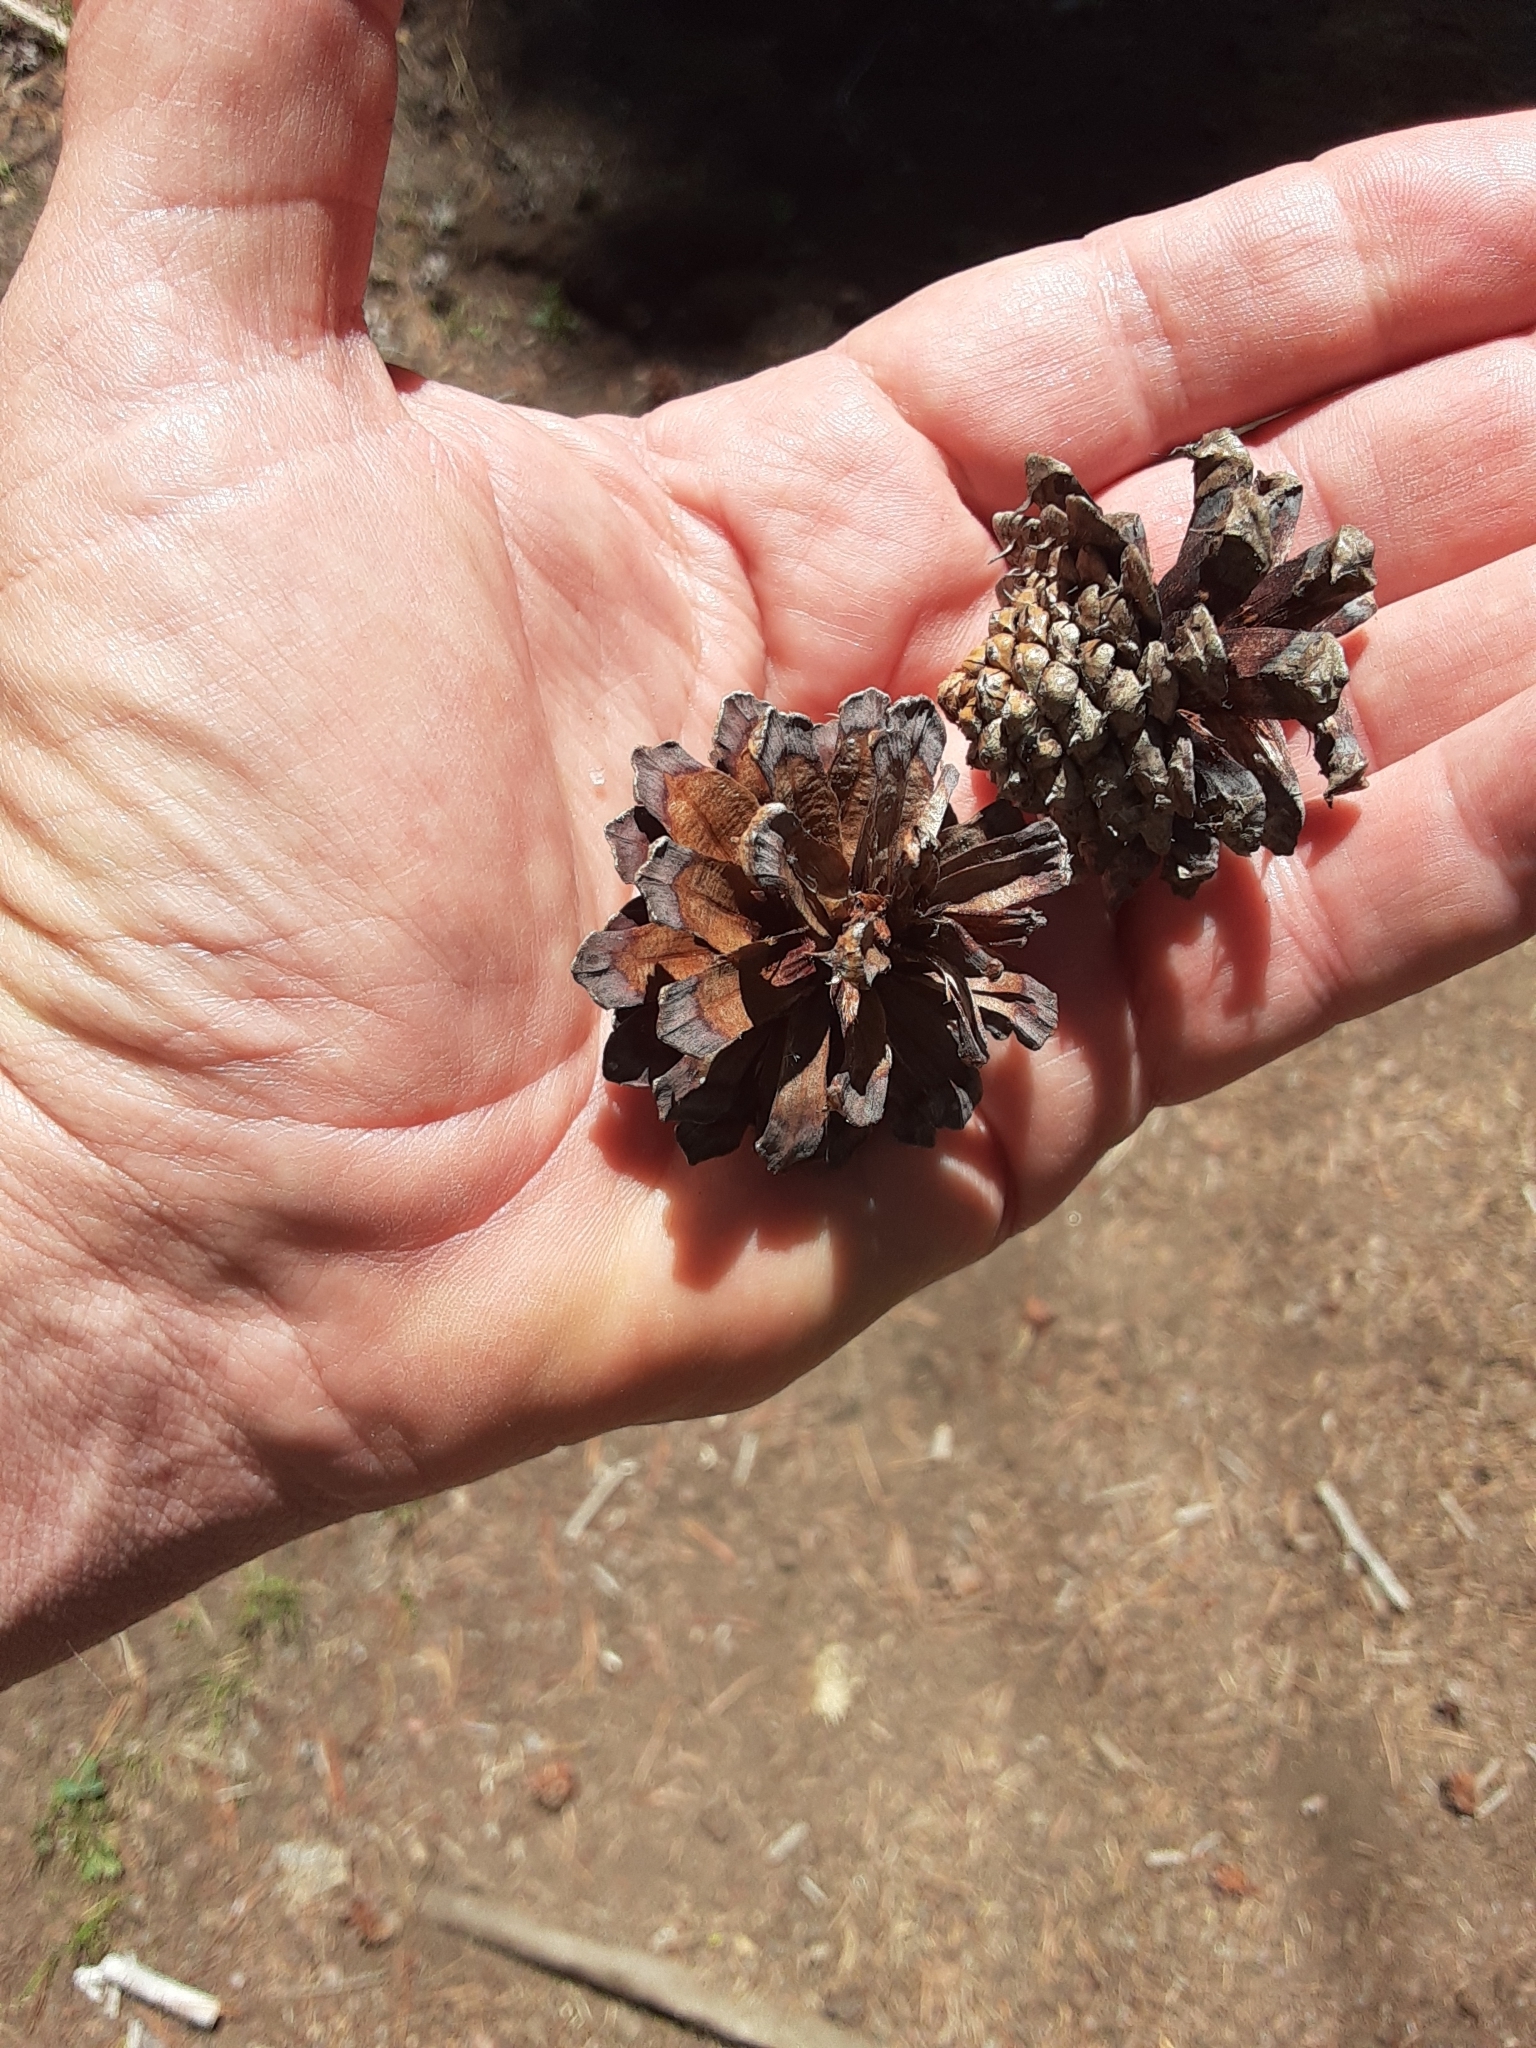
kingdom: Plantae
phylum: Tracheophyta
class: Pinopsida
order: Pinales
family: Pinaceae
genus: Pinus
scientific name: Pinus contorta
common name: Lodgepole pine
